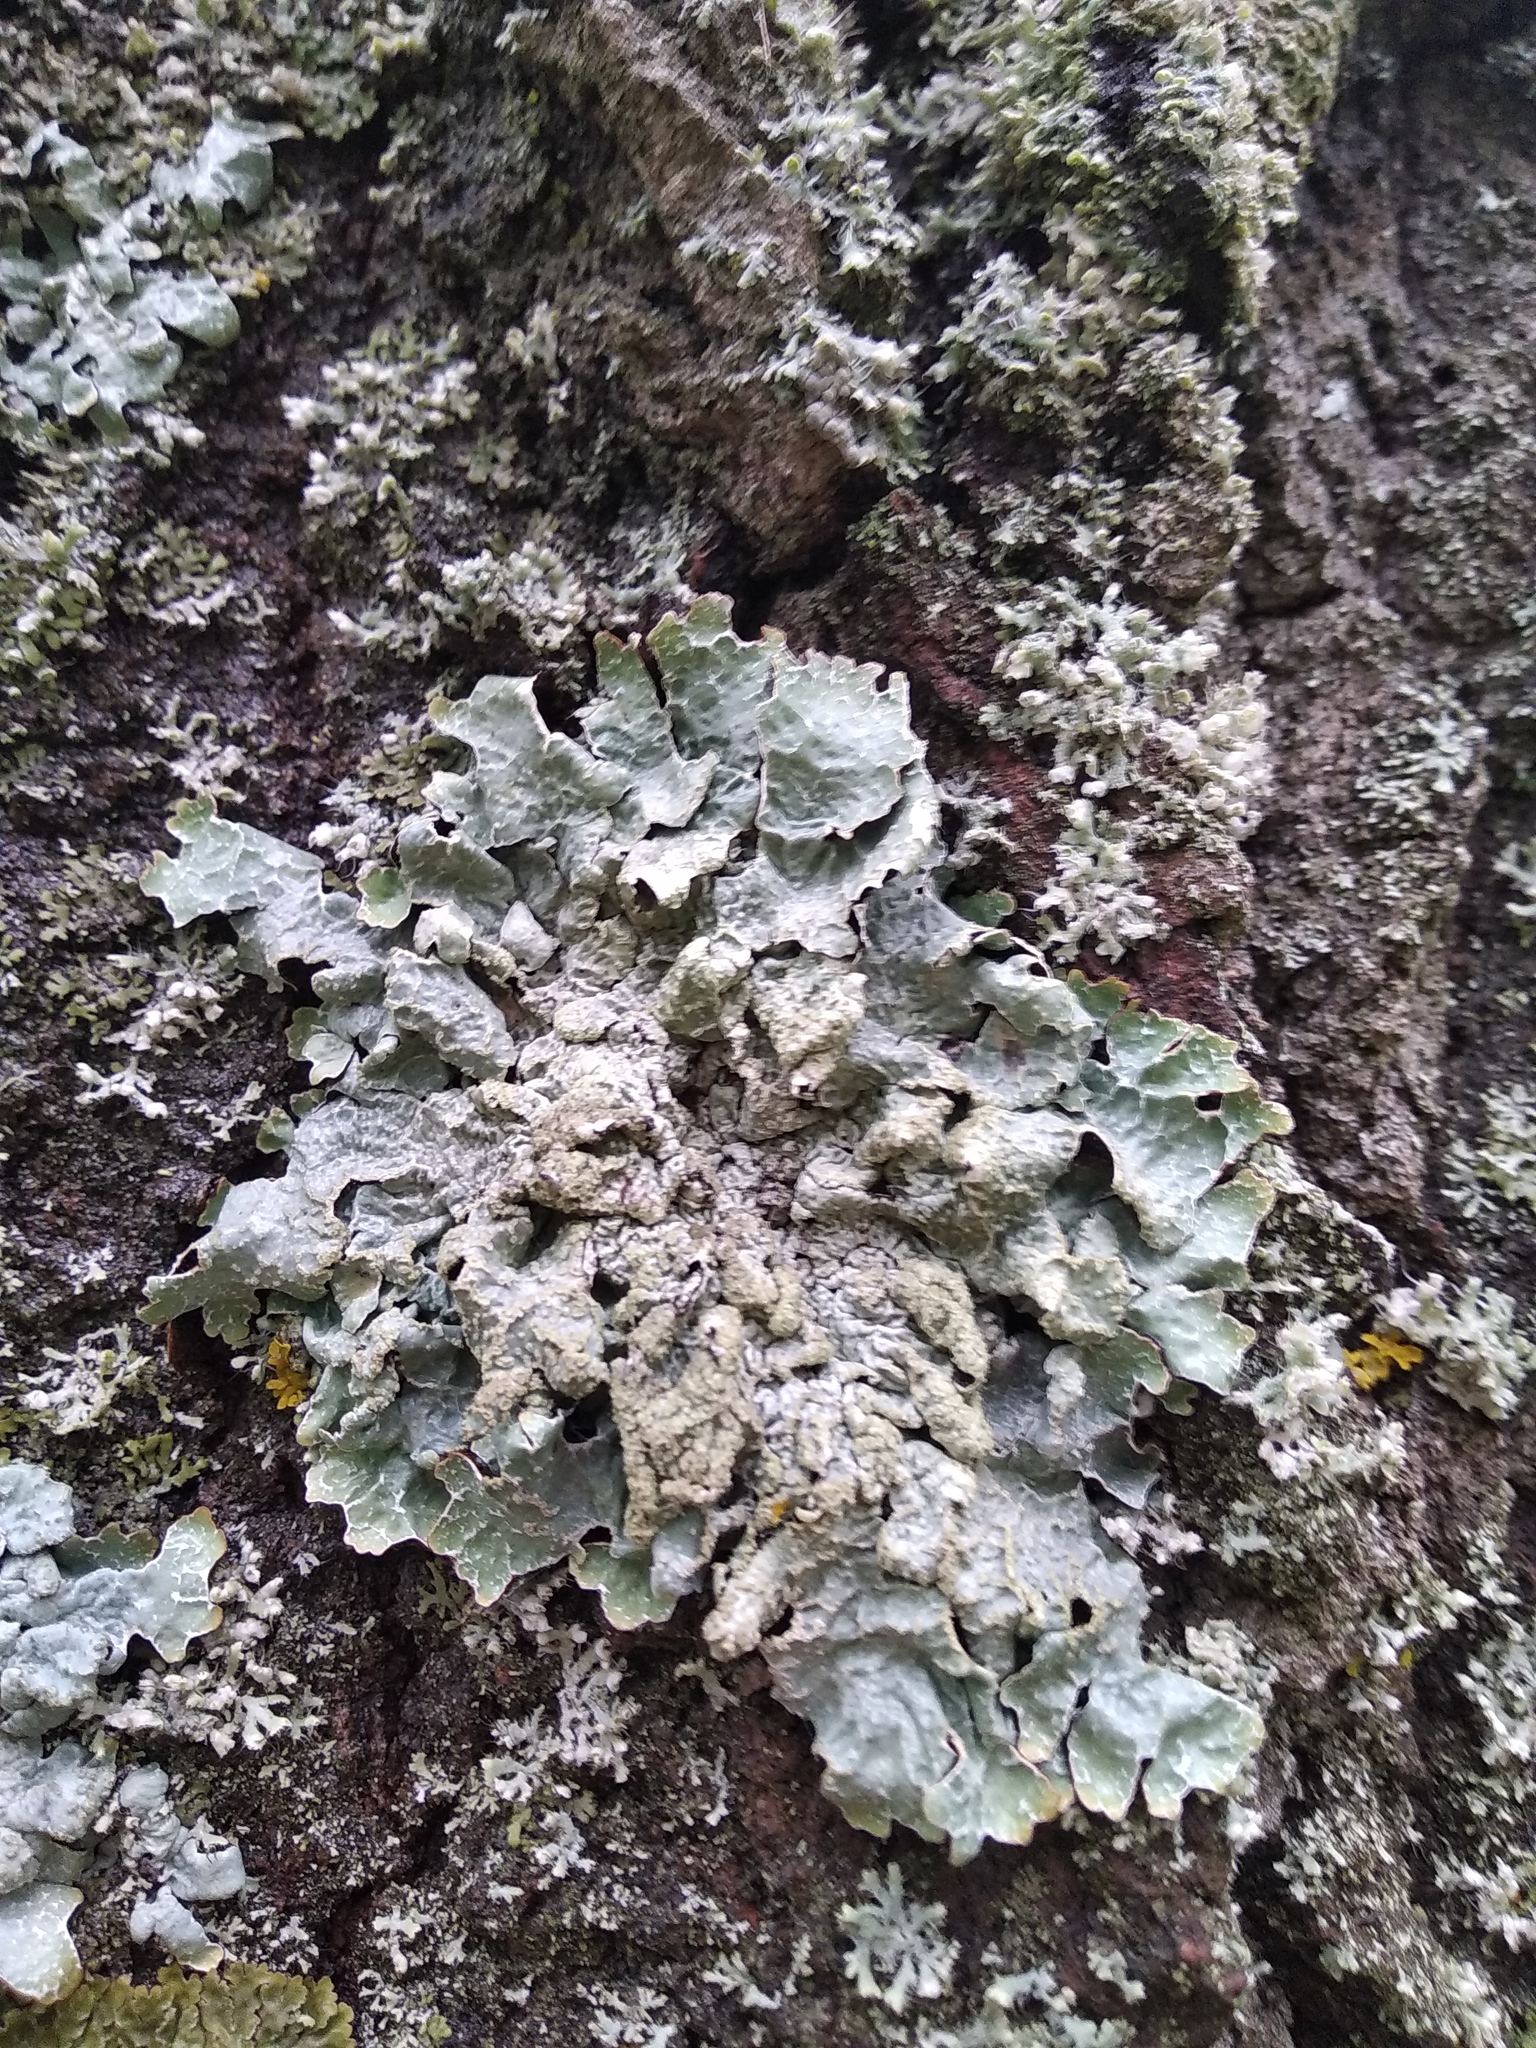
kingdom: Fungi
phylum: Ascomycota
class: Lecanoromycetes
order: Lecanorales
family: Parmeliaceae
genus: Parmelia
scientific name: Parmelia sulcata
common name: Netted shield lichen
